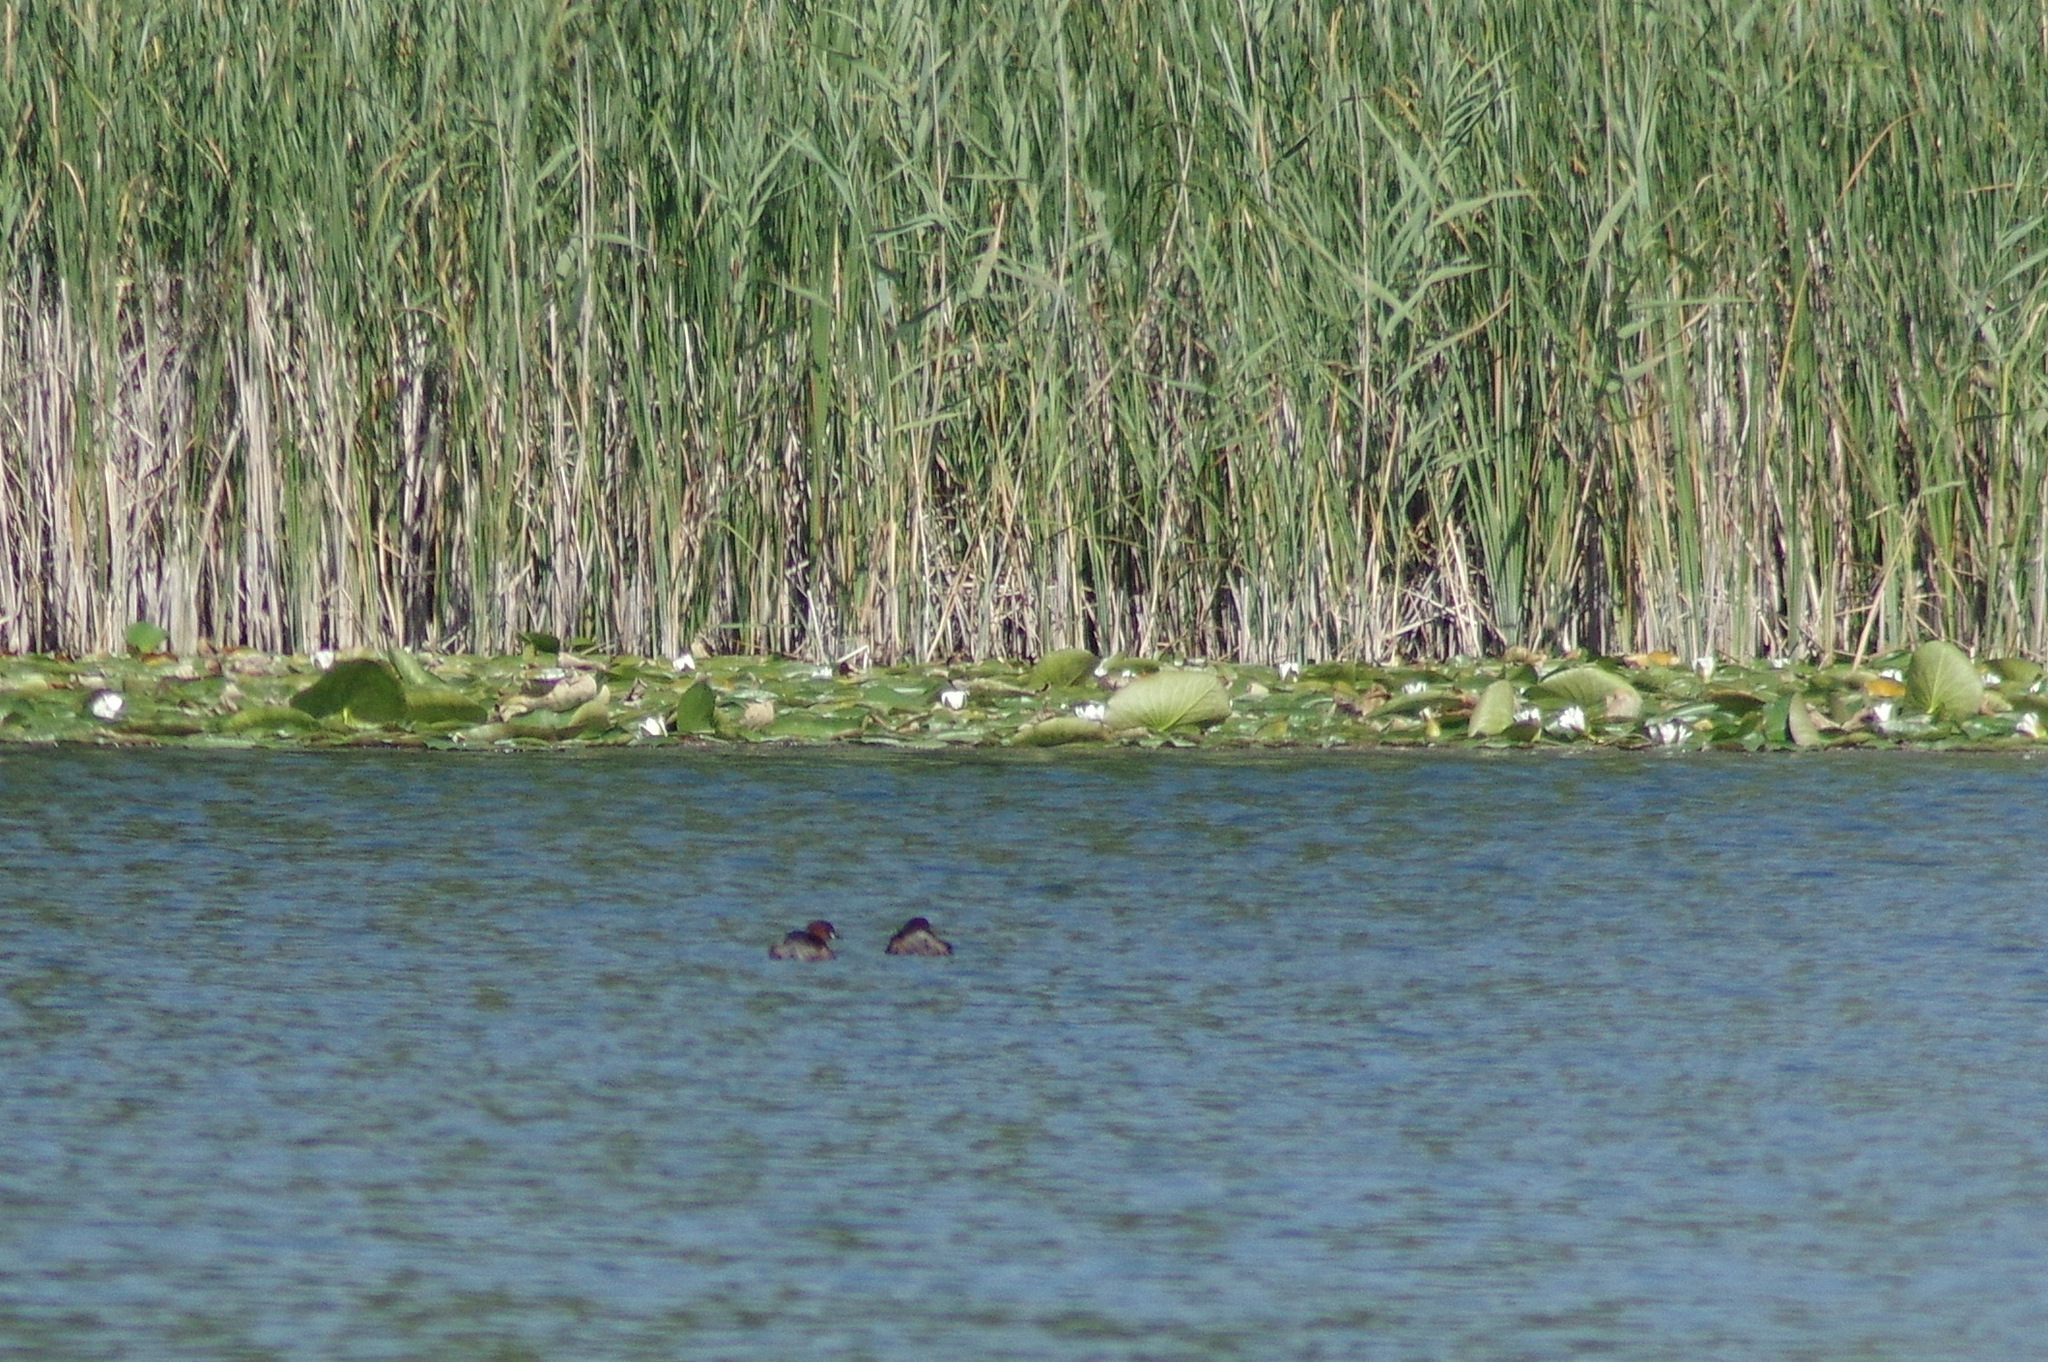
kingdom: Animalia
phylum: Chordata
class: Aves
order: Podicipediformes
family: Podicipedidae
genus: Tachybaptus
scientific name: Tachybaptus ruficollis
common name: Little grebe
